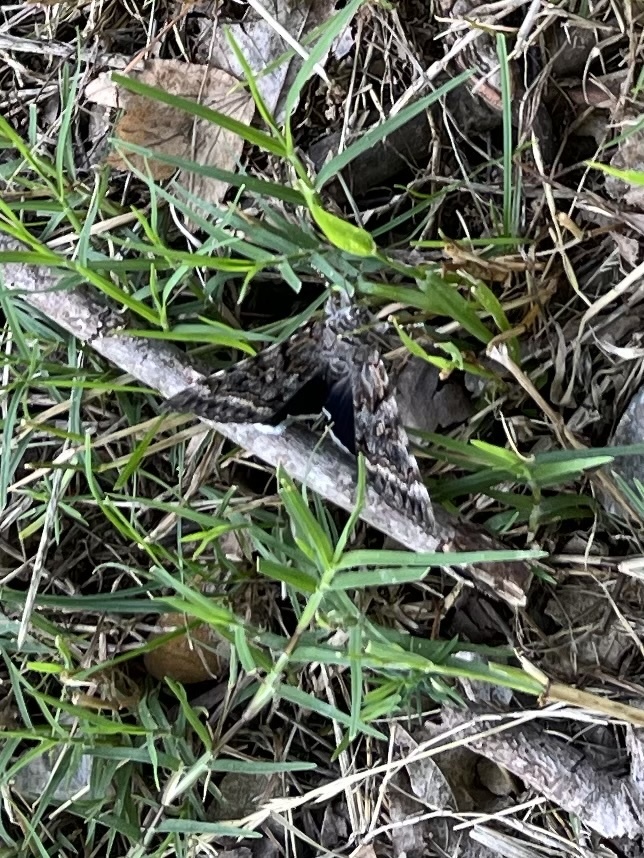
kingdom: Animalia
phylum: Arthropoda
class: Insecta
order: Lepidoptera
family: Erebidae
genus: Catocala
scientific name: Catocala epione
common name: Epione underwing
